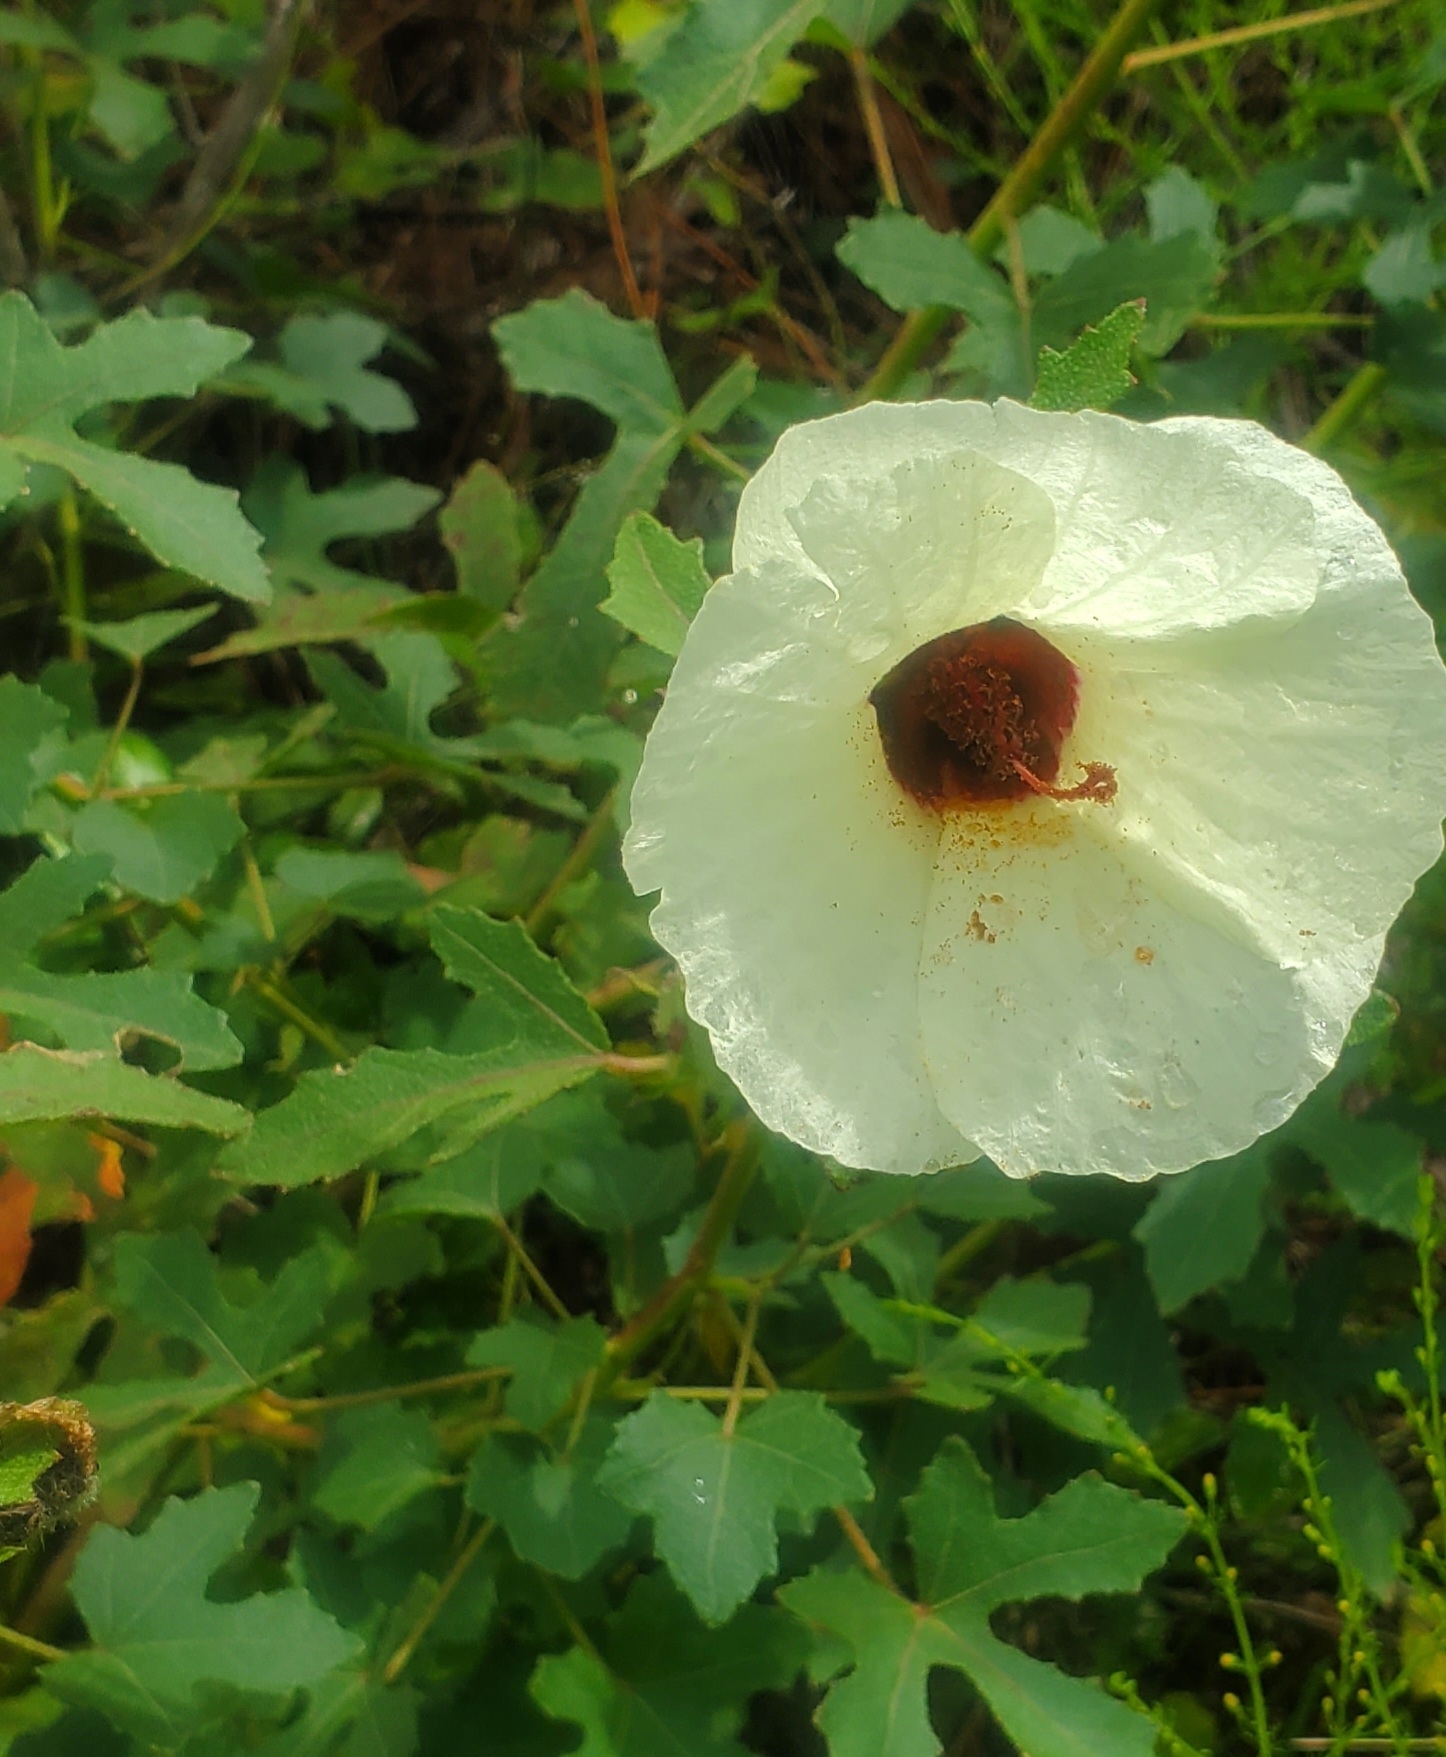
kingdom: Plantae
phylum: Tracheophyta
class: Magnoliopsida
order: Malvales
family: Malvaceae
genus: Hibiscus
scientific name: Hibiscus aculeatus
